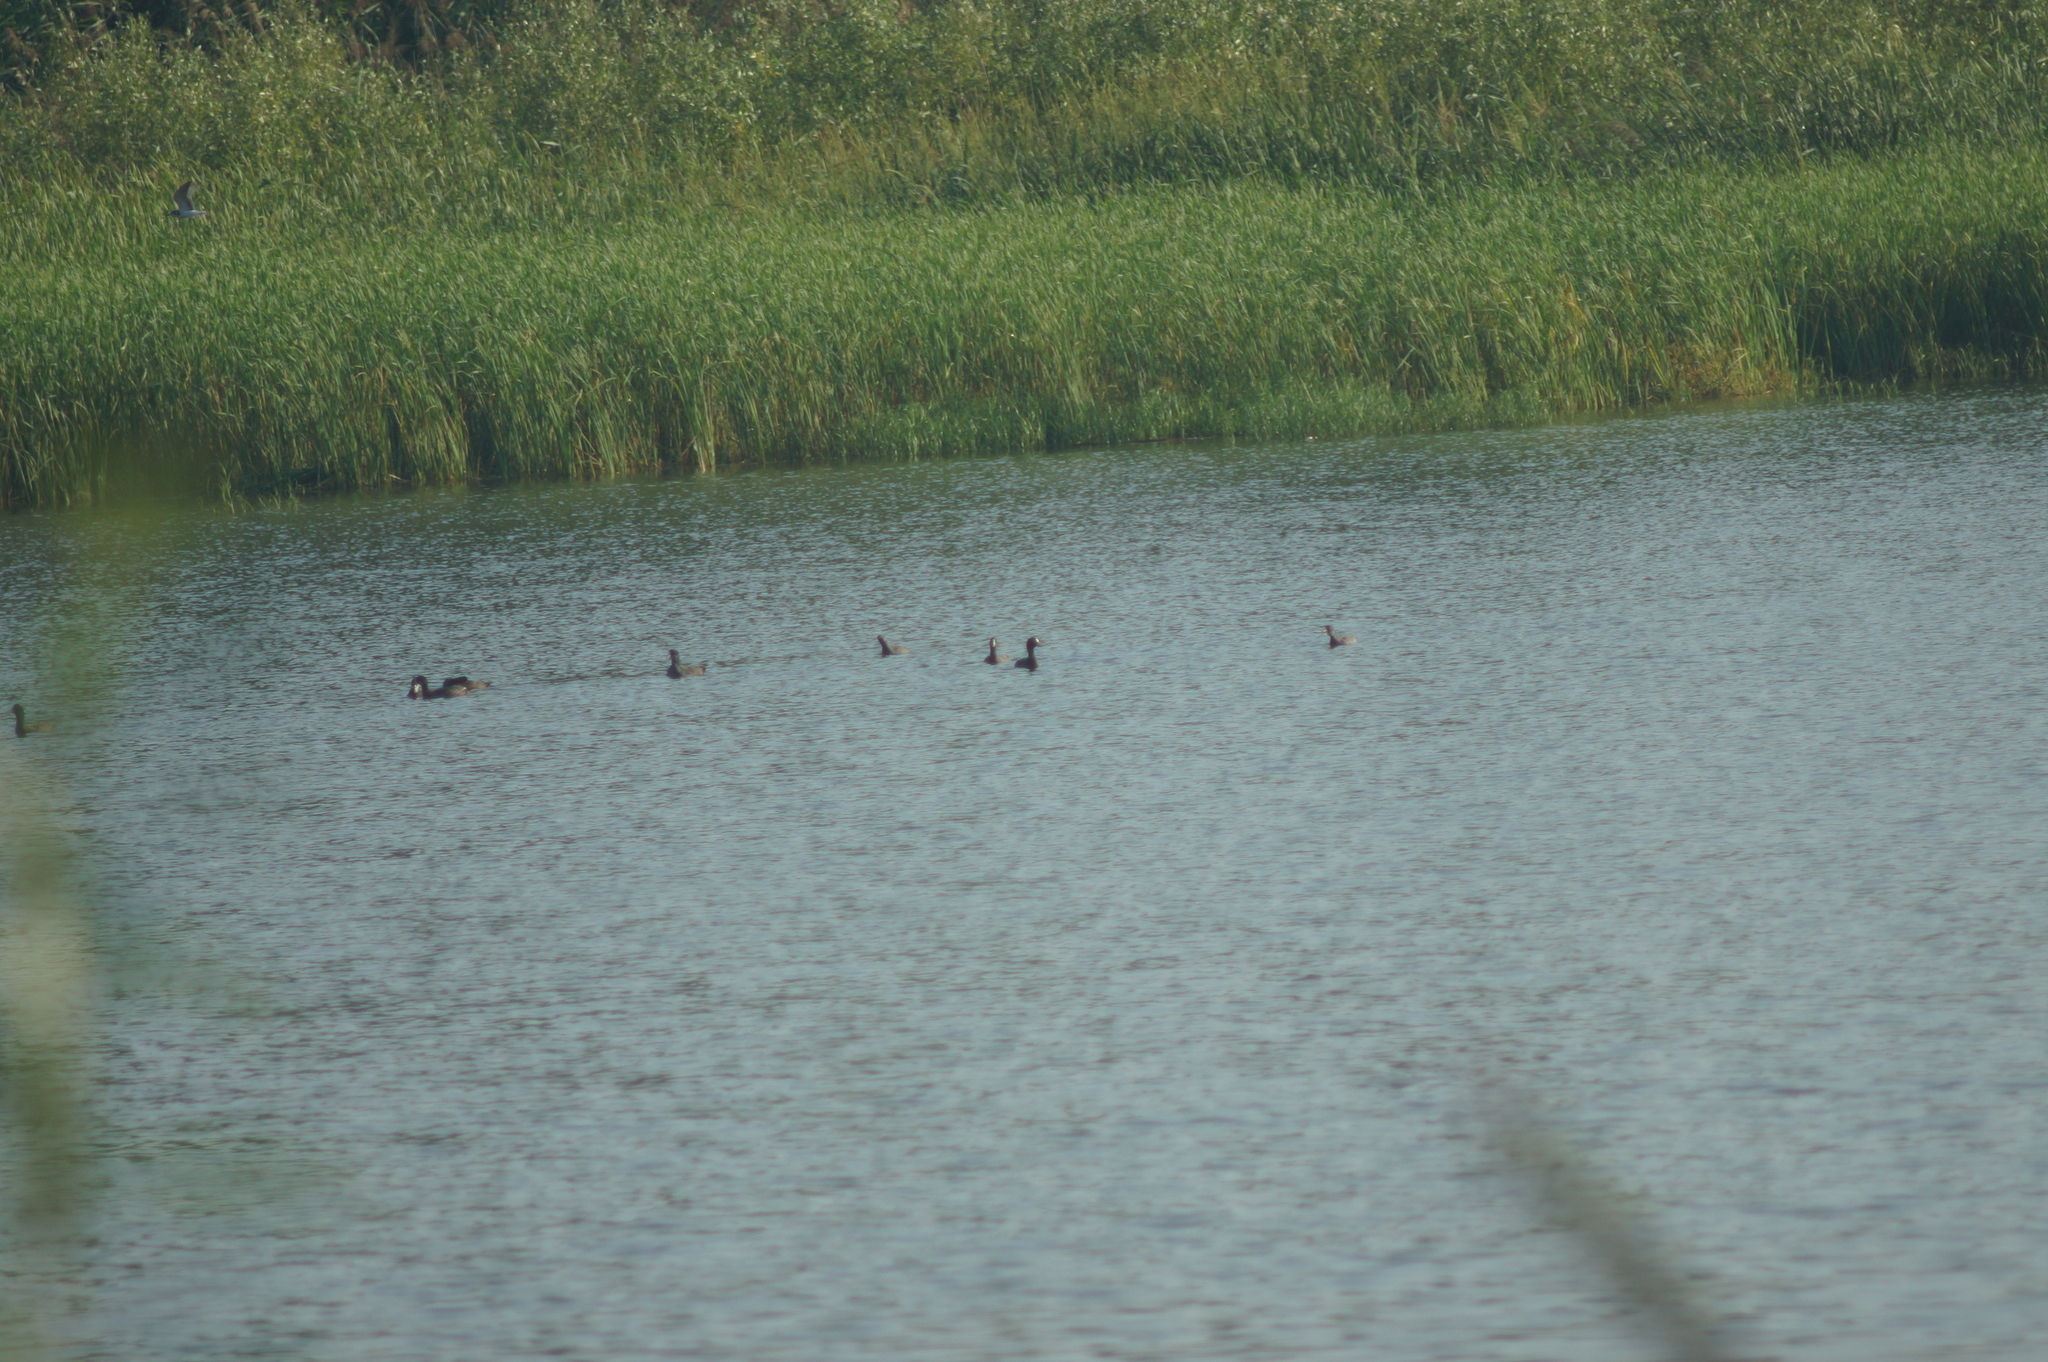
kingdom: Animalia
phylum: Chordata
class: Aves
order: Gruiformes
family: Rallidae
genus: Fulica
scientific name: Fulica atra
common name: Eurasian coot
